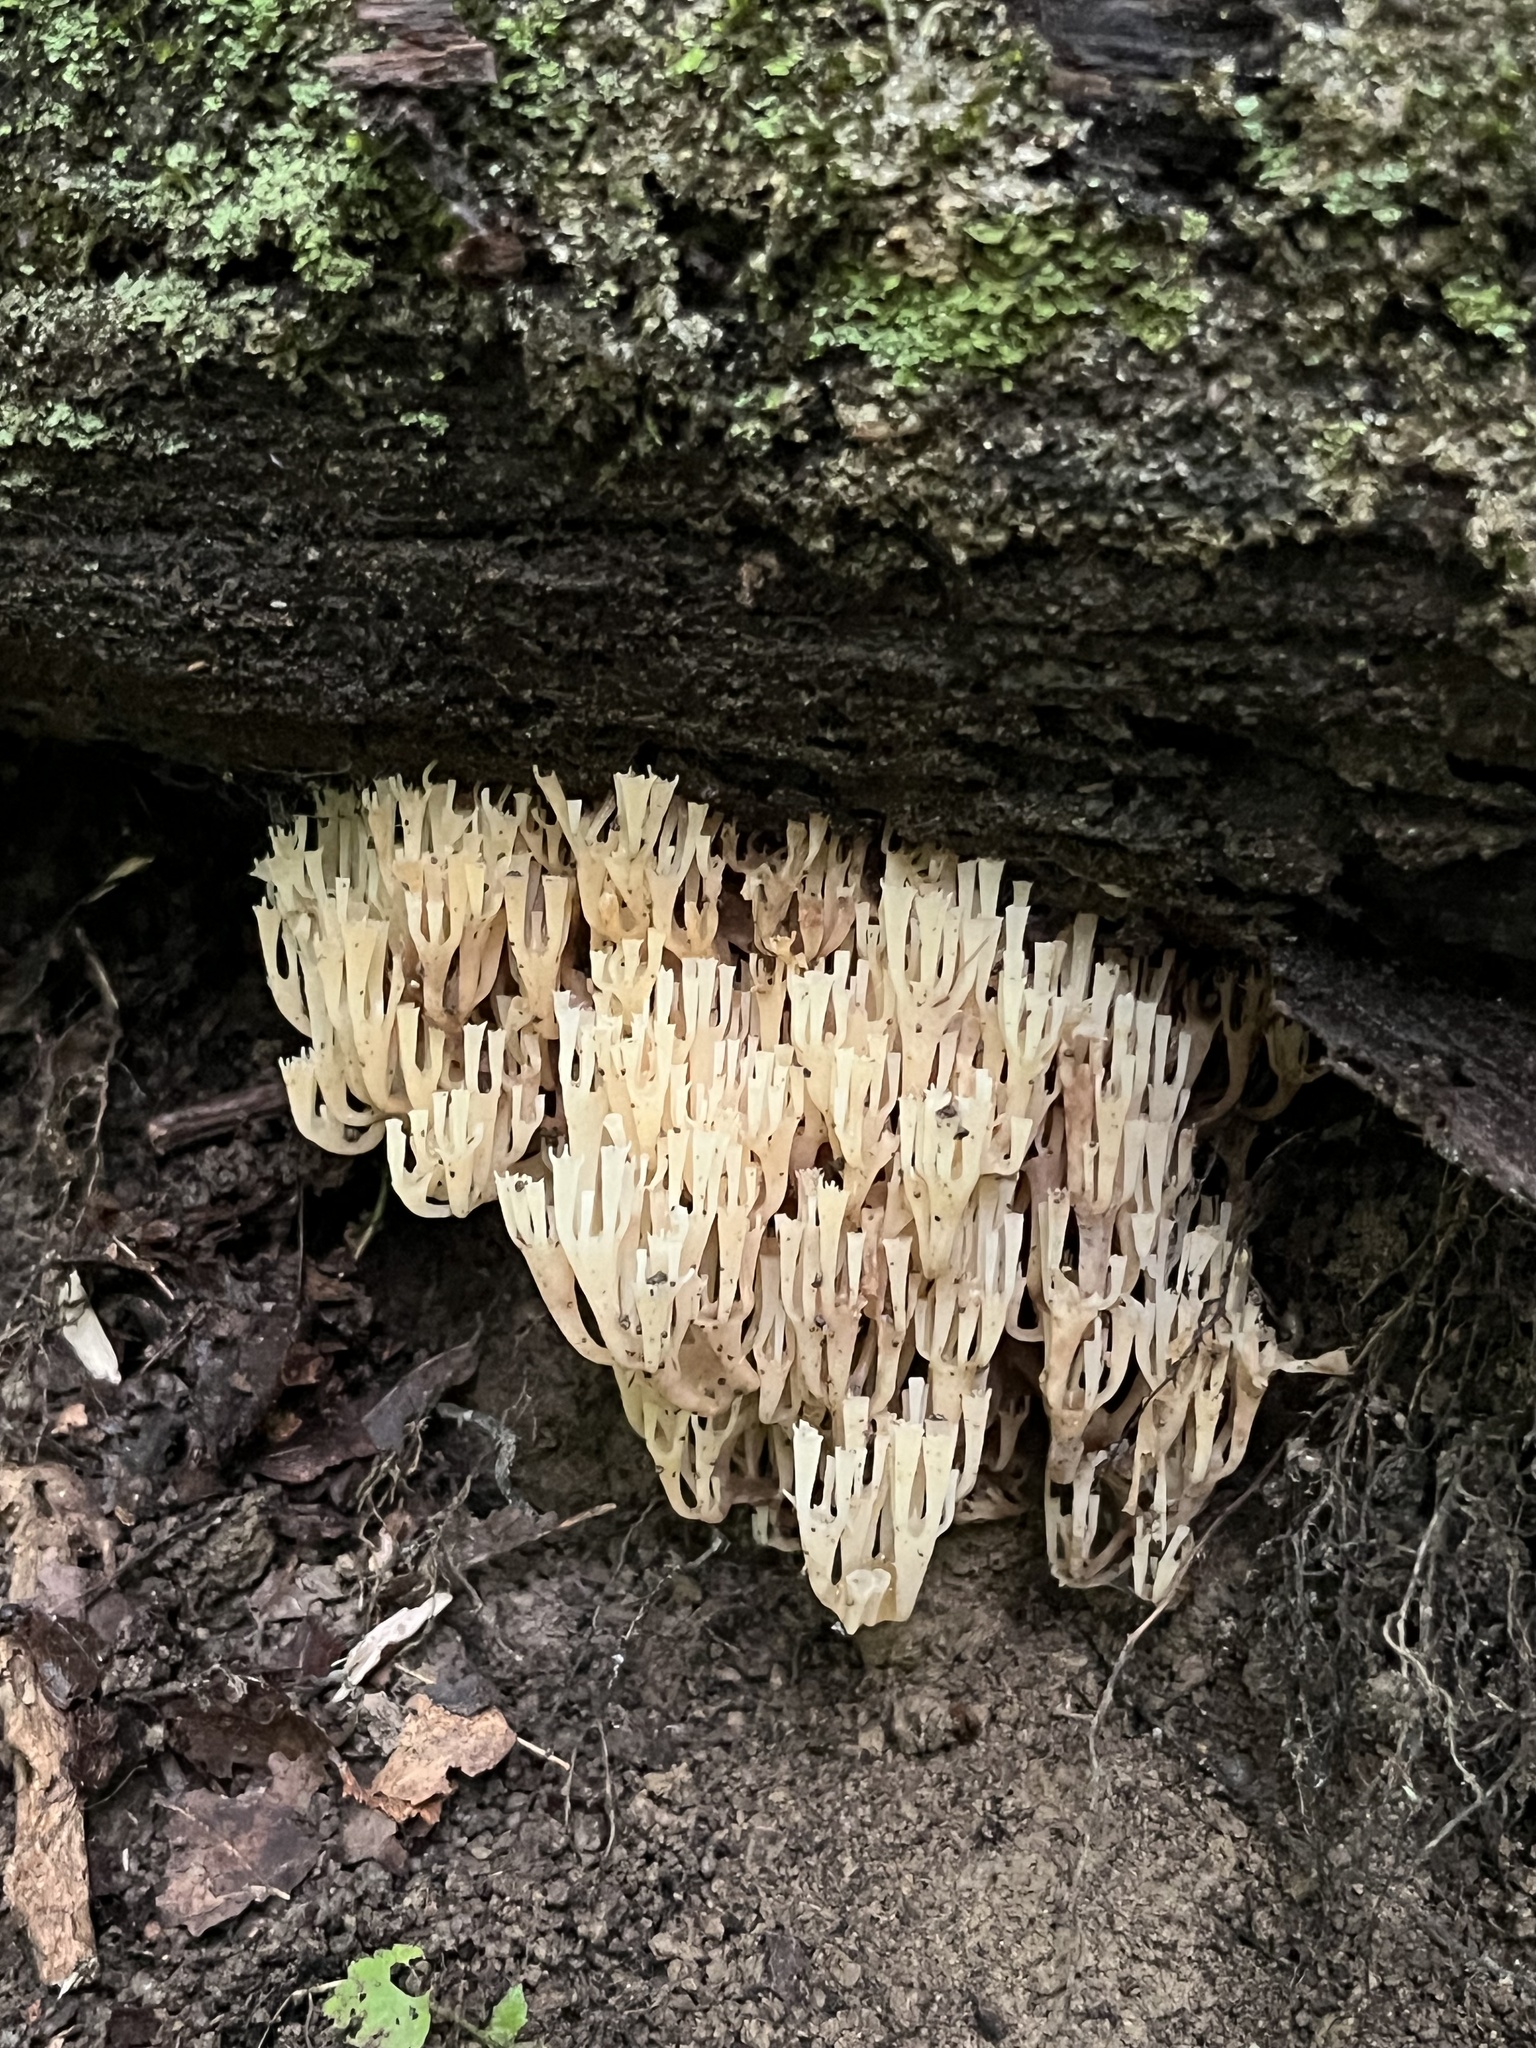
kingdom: Fungi
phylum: Basidiomycota
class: Agaricomycetes
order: Russulales
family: Auriscalpiaceae
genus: Artomyces
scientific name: Artomyces pyxidatus
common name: Crown-tipped coral fungus
